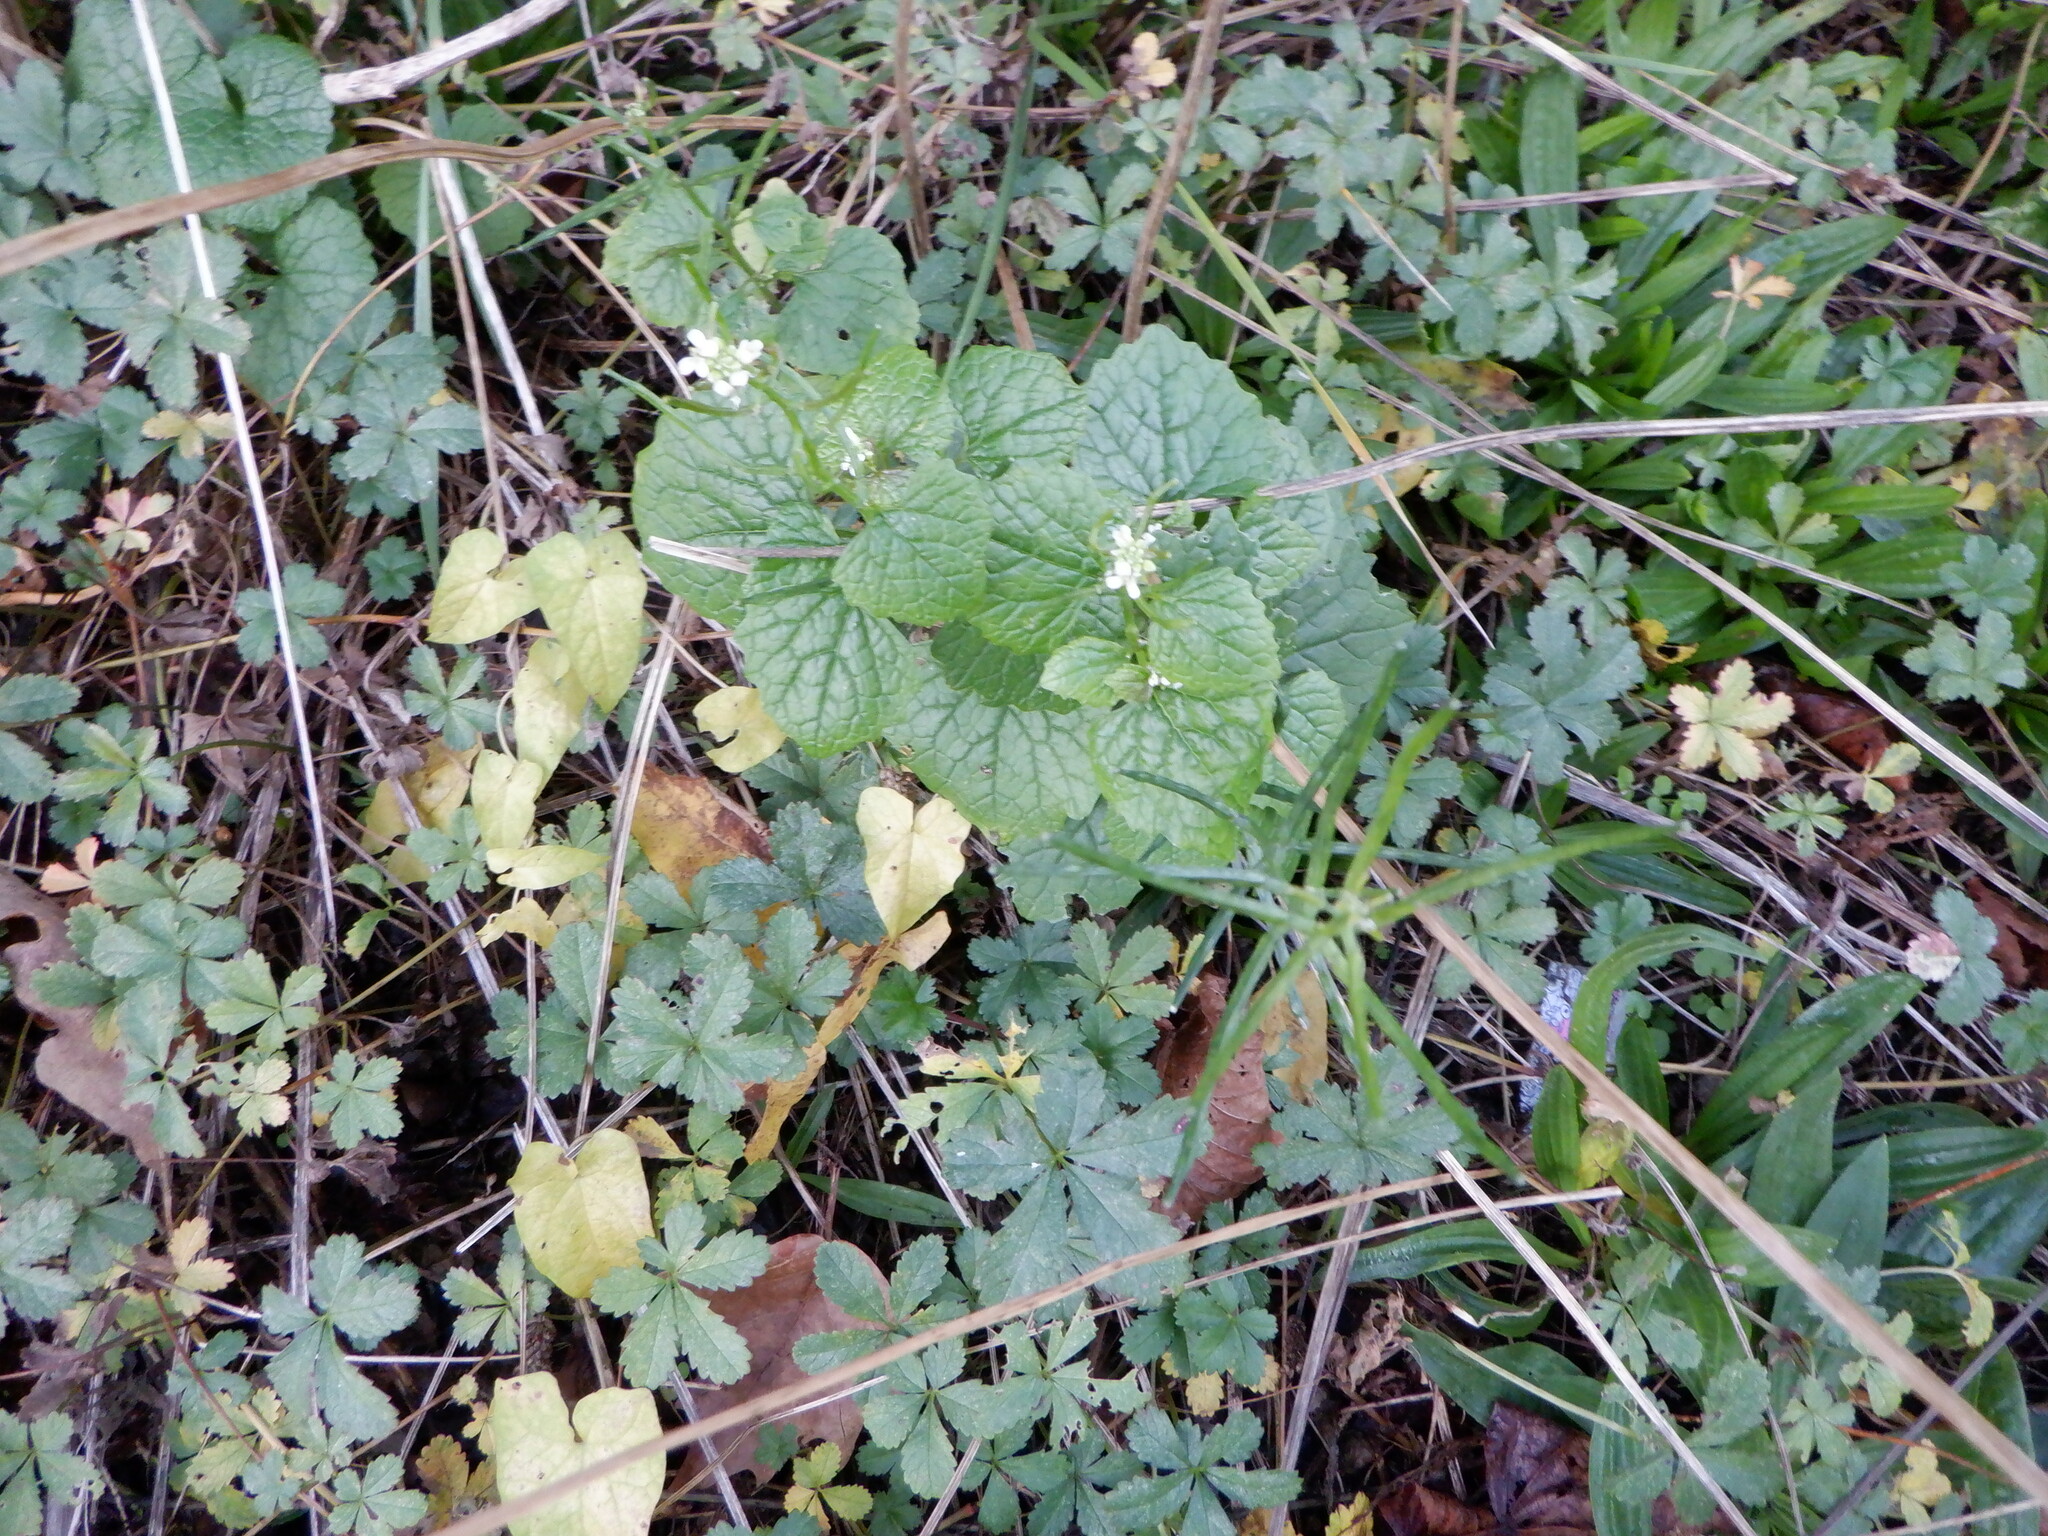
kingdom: Plantae
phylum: Tracheophyta
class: Magnoliopsida
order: Brassicales
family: Brassicaceae
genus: Alliaria
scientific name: Alliaria petiolata
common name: Garlic mustard
